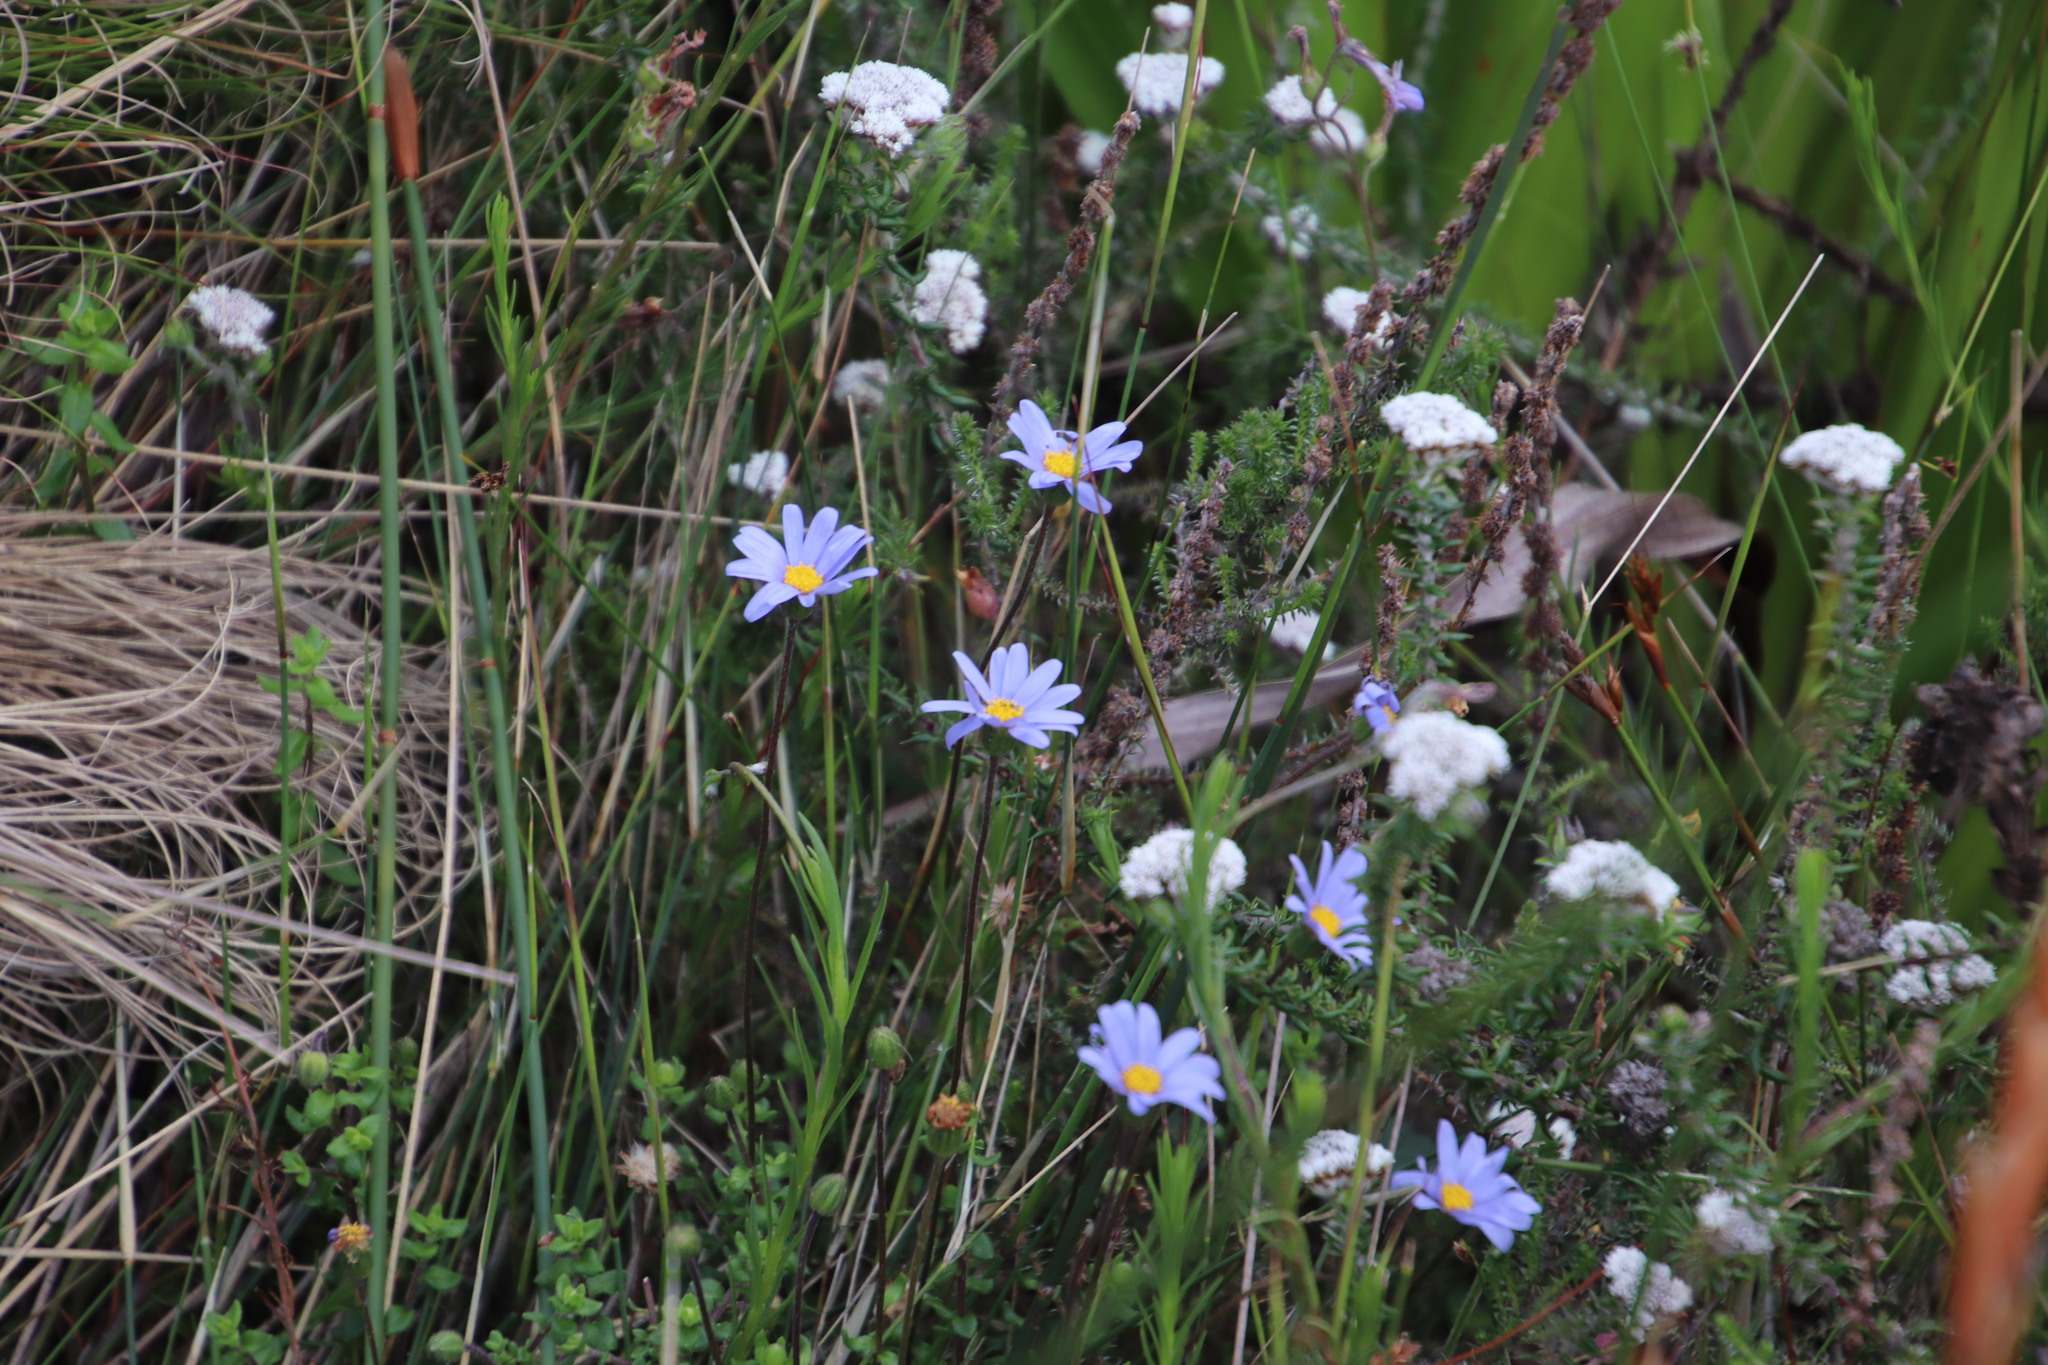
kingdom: Plantae
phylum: Tracheophyta
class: Magnoliopsida
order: Asterales
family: Asteraceae
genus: Felicia
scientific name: Felicia aethiopica
